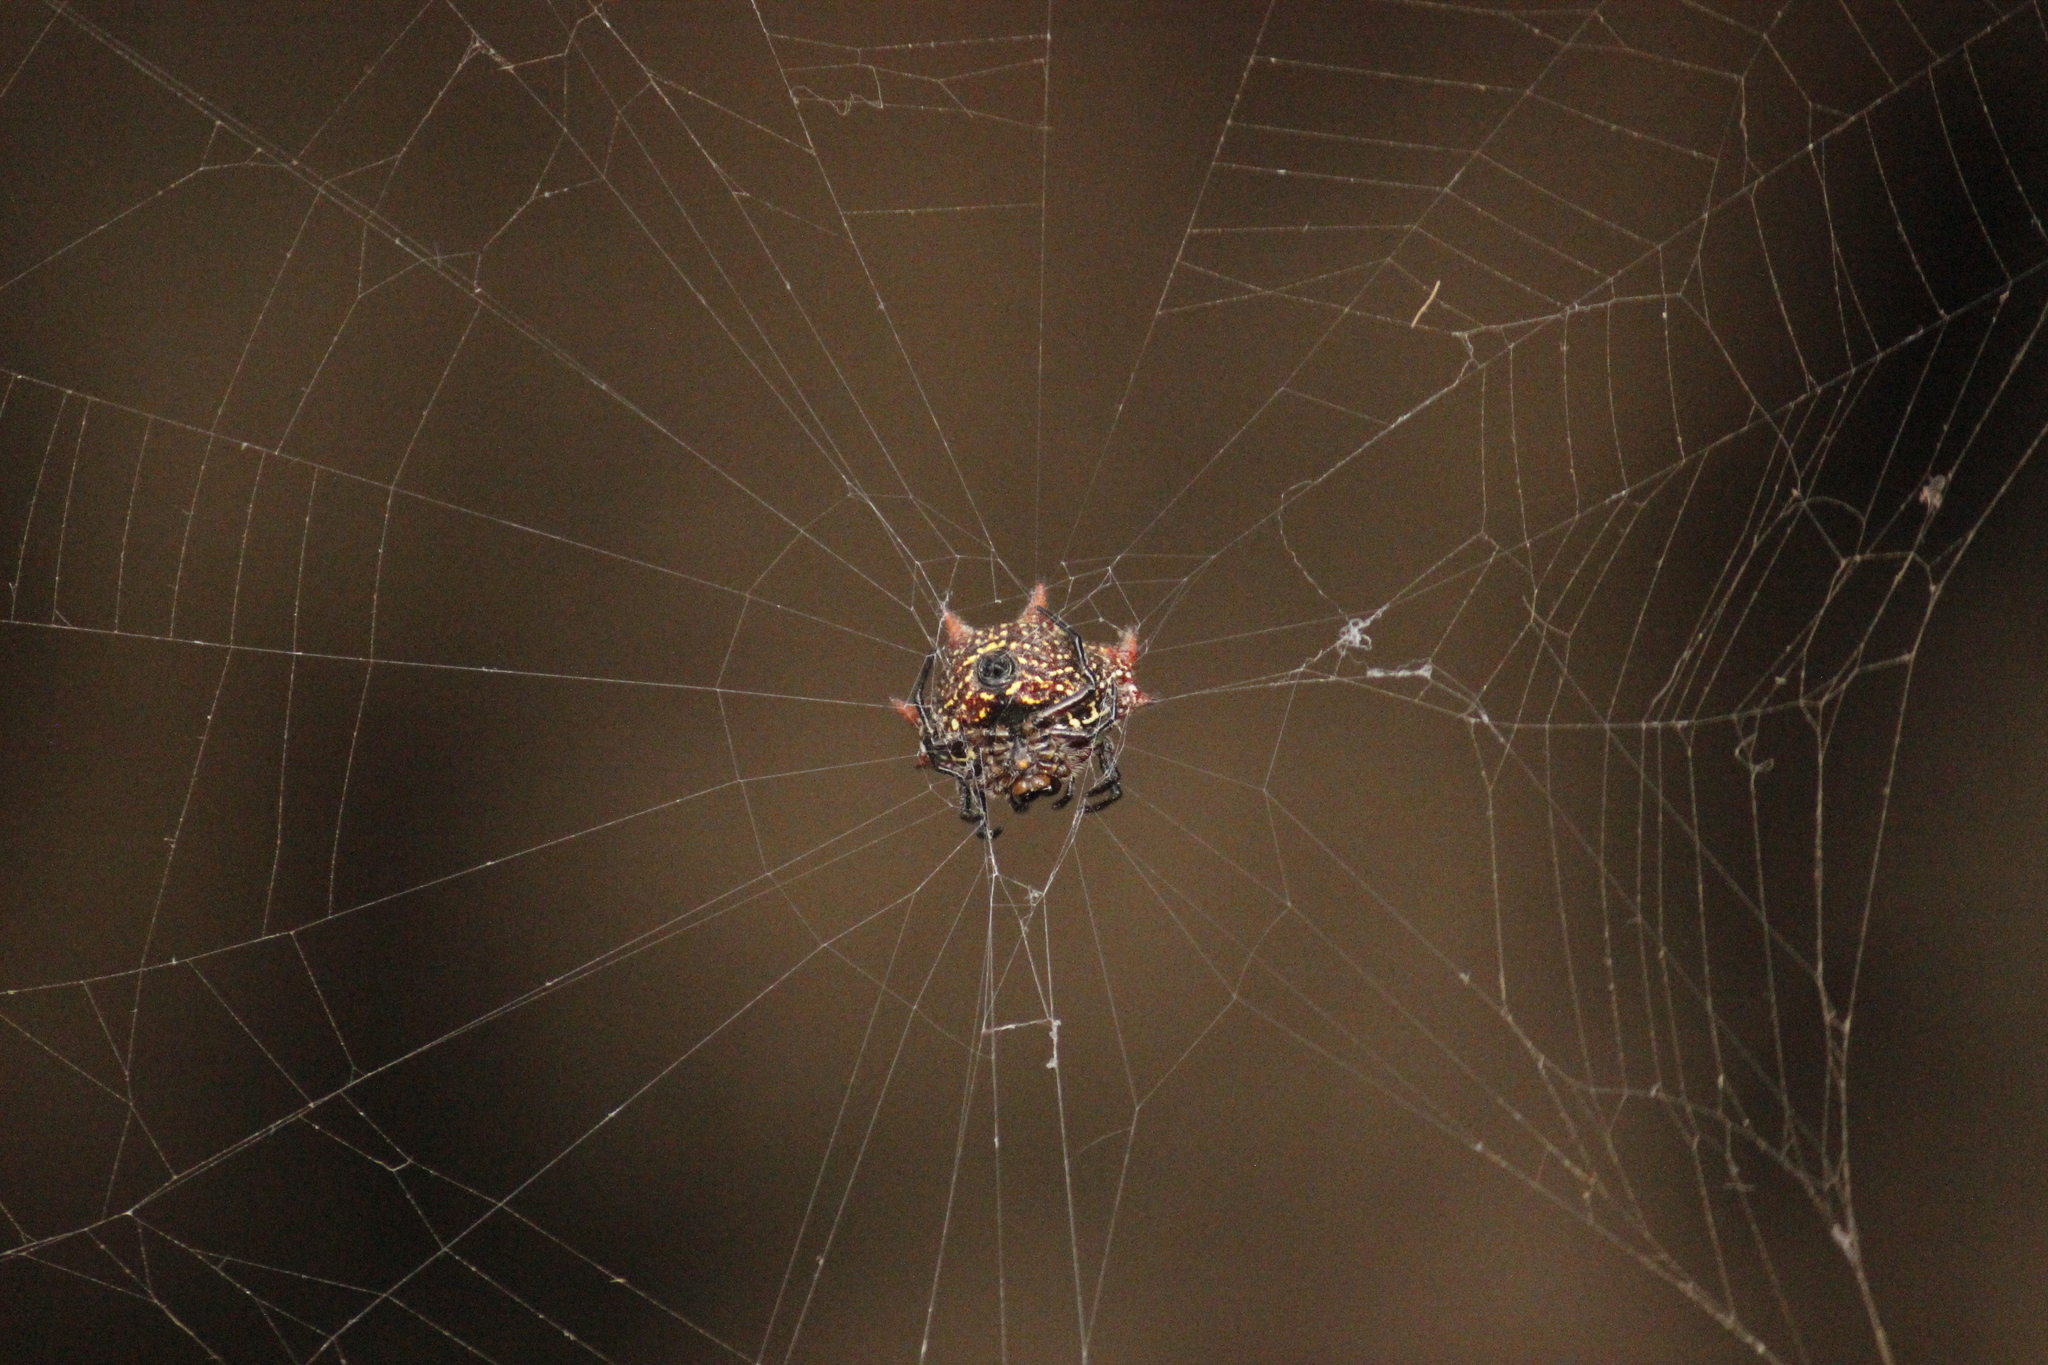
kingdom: Animalia
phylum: Arthropoda
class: Arachnida
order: Araneae
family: Araneidae
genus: Gasteracantha
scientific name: Gasteracantha cancriformis
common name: Orb weavers
